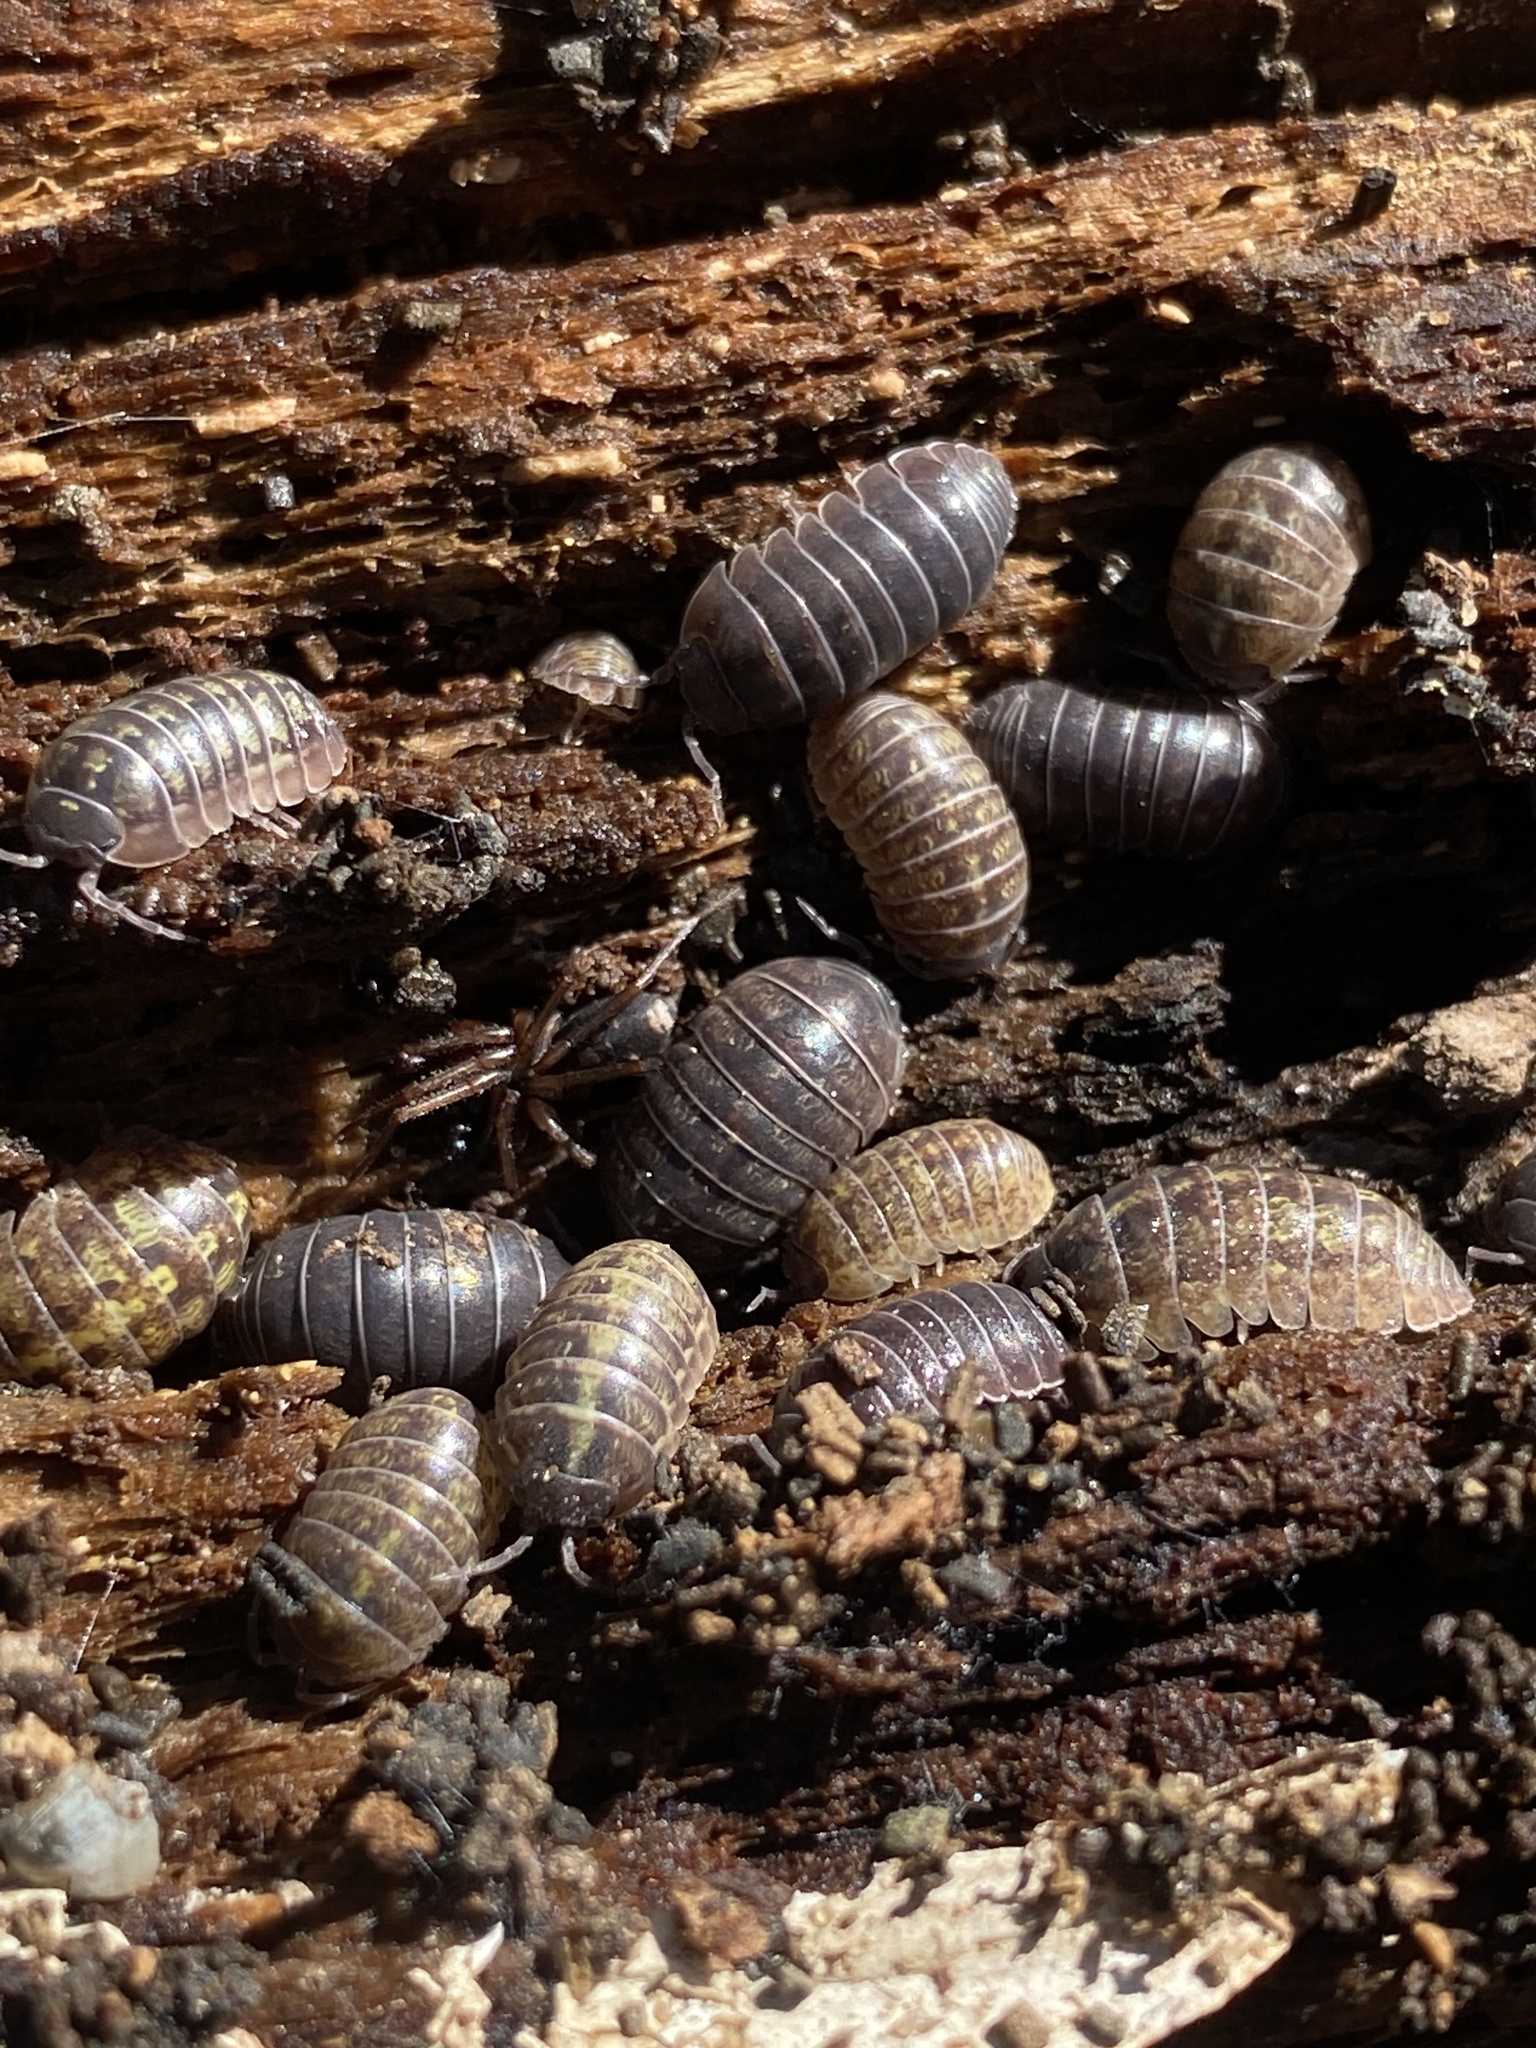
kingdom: Animalia
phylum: Arthropoda
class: Malacostraca
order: Isopoda
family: Armadillidiidae
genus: Armadillidium
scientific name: Armadillidium vulgare
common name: Common pill woodlouse
